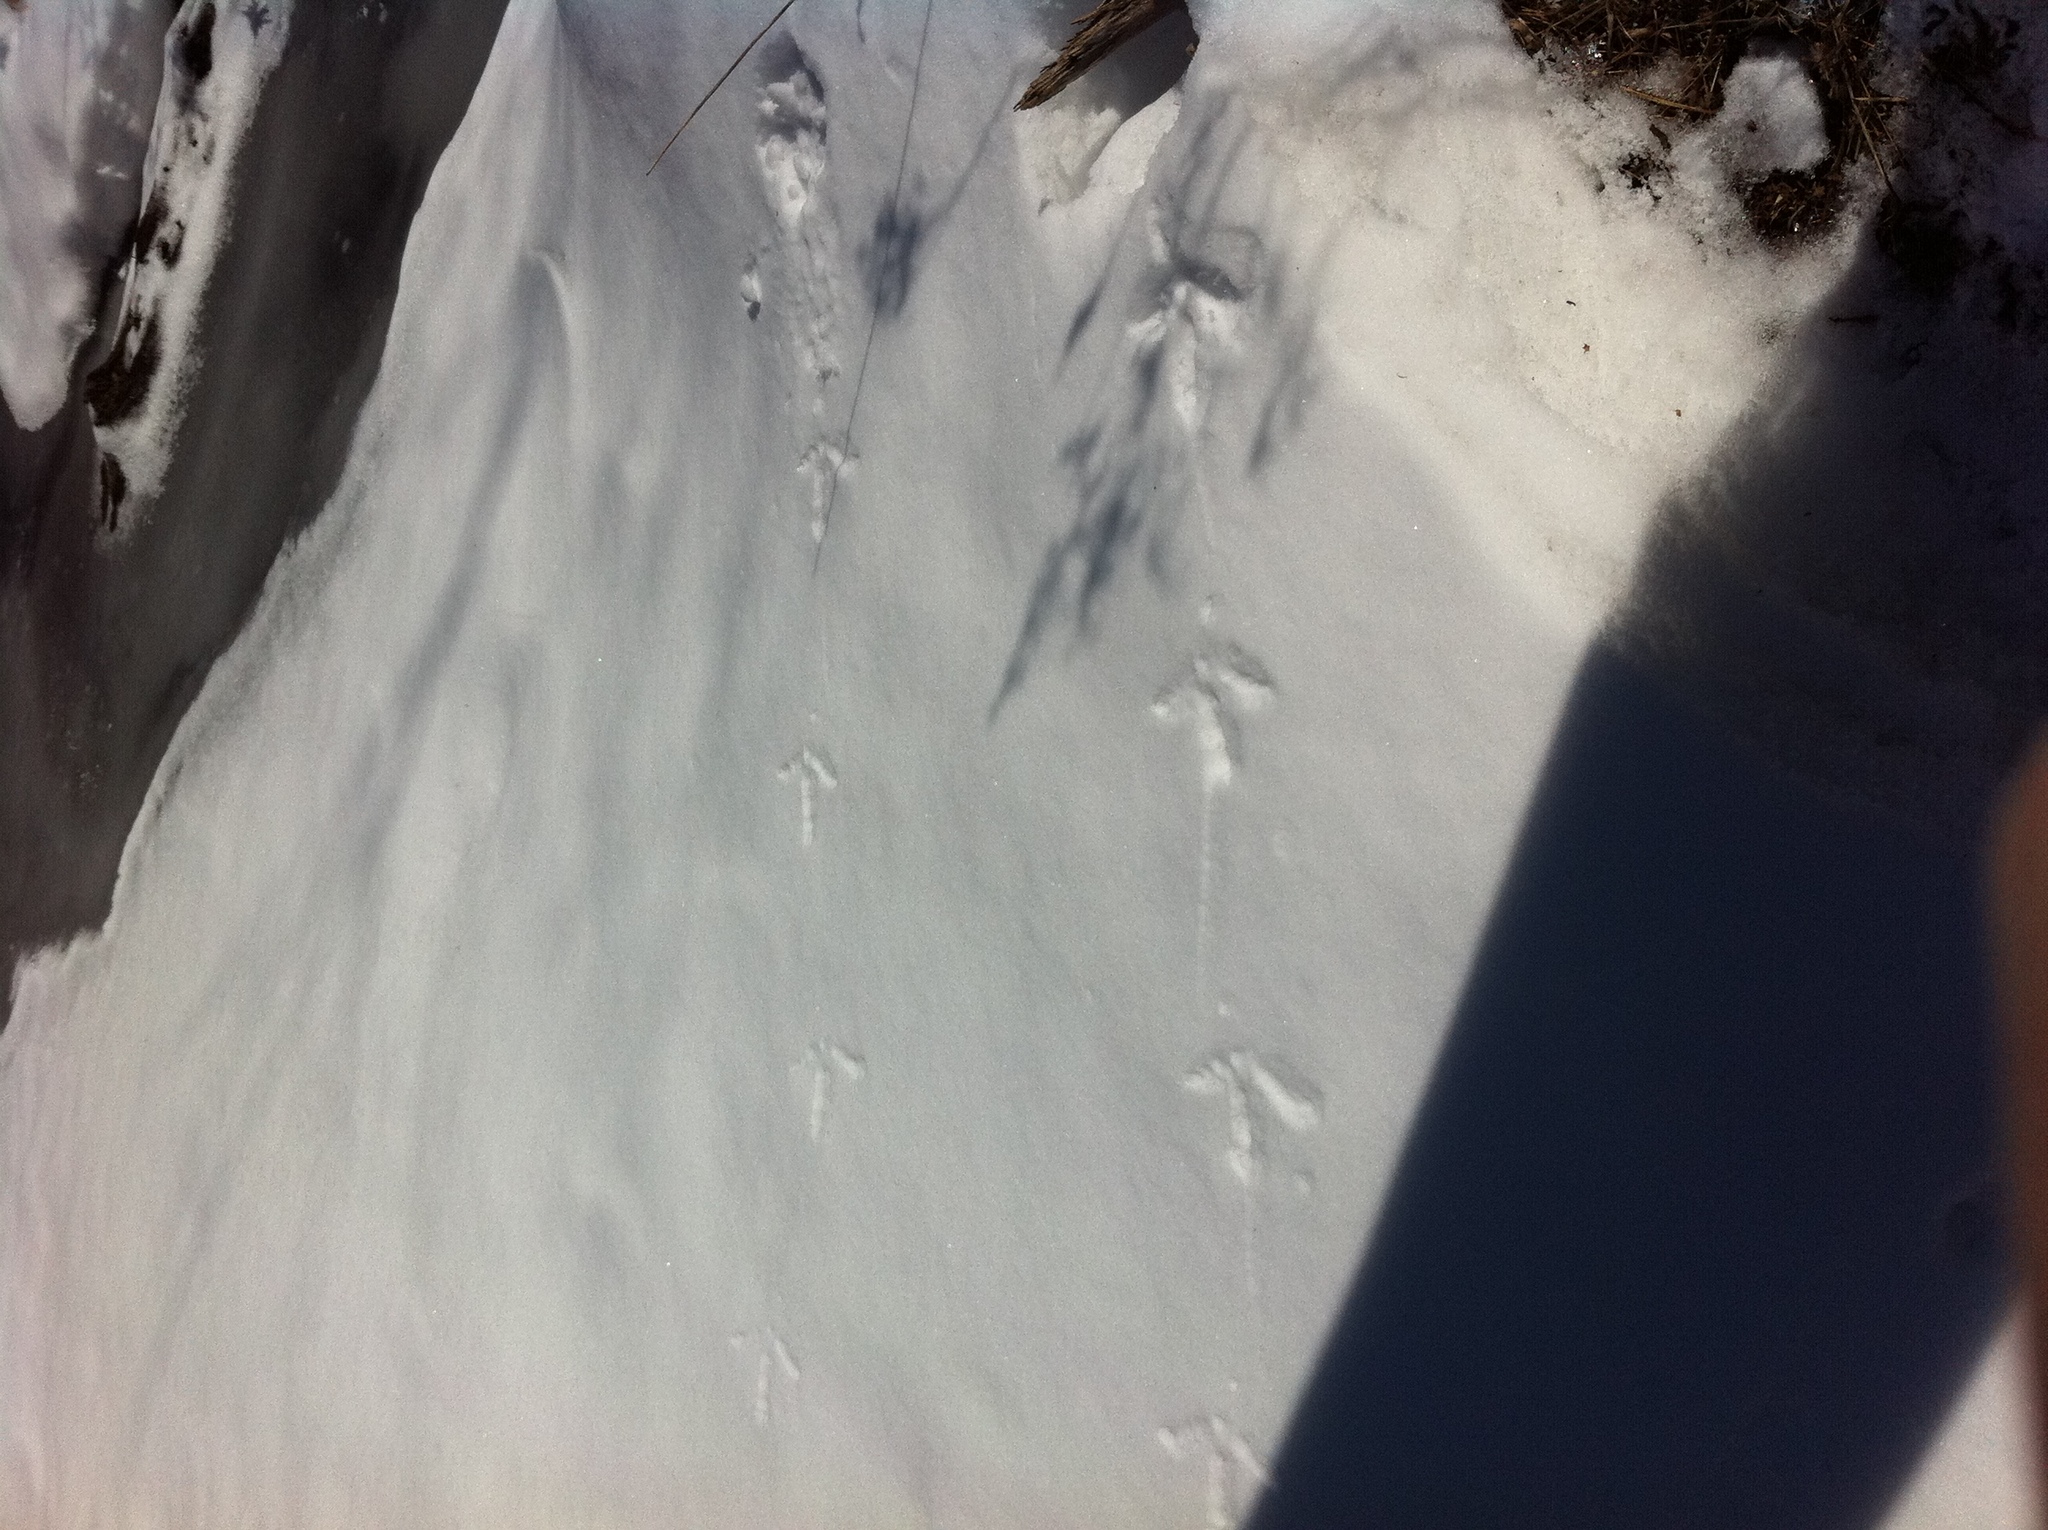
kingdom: Animalia
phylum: Chordata
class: Aves
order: Galliformes
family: Phasianidae
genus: Meleagris
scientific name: Meleagris gallopavo
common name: Wild turkey
